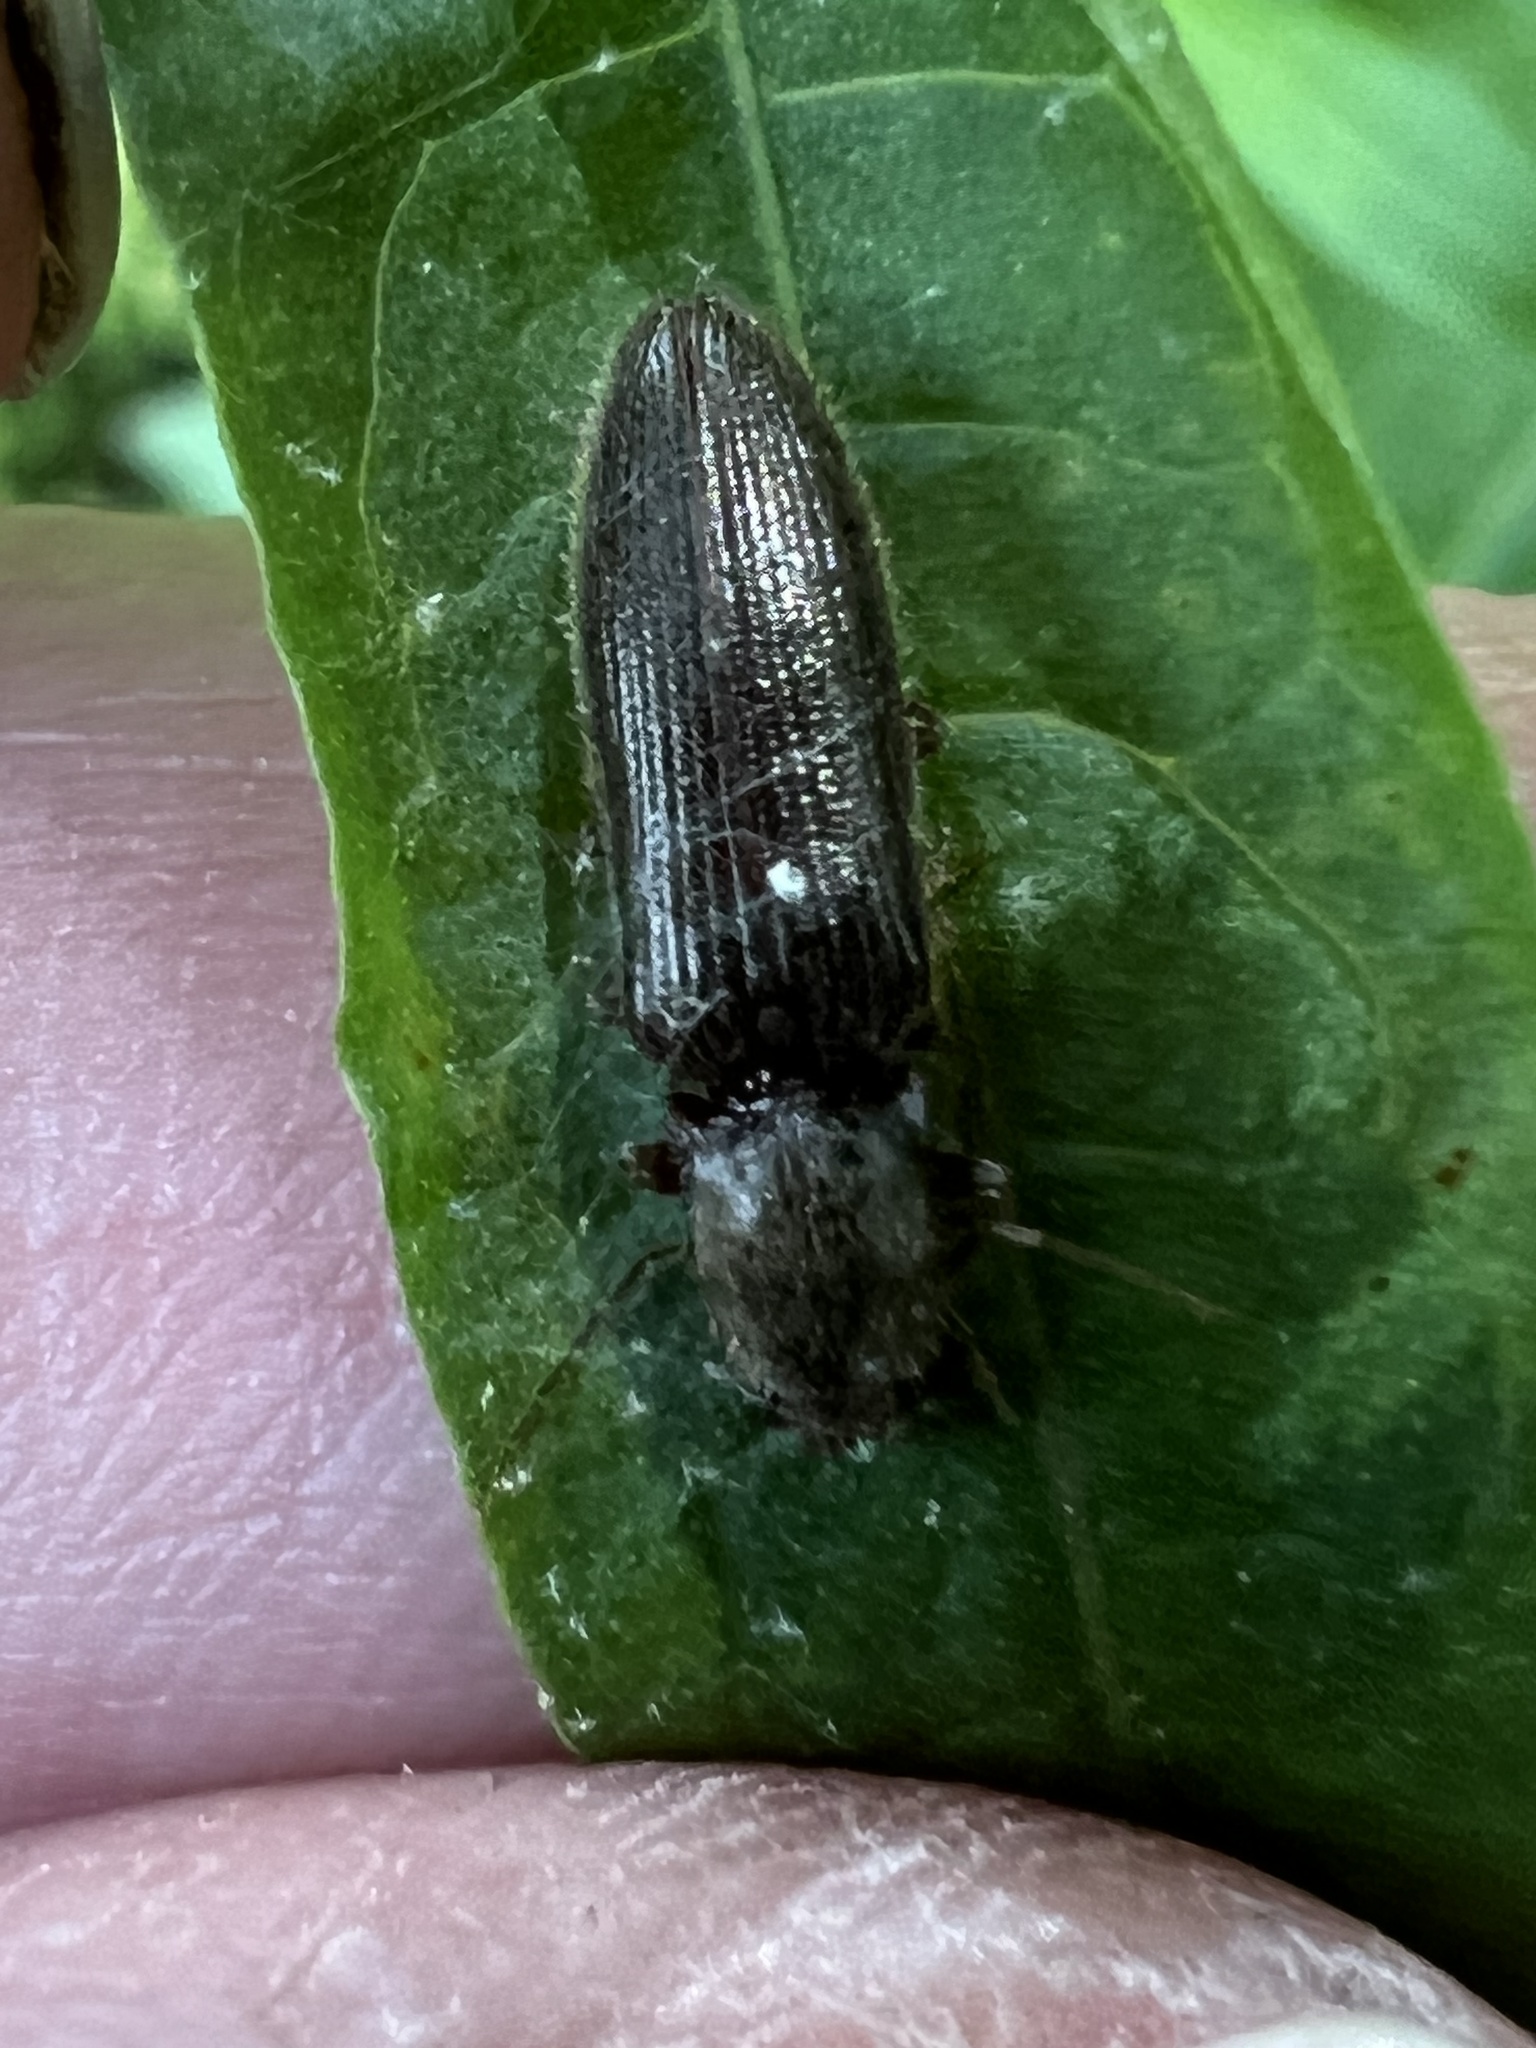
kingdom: Animalia
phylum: Arthropoda
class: Insecta
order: Coleoptera
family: Elateridae
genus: Athous
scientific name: Athous brightwelli
